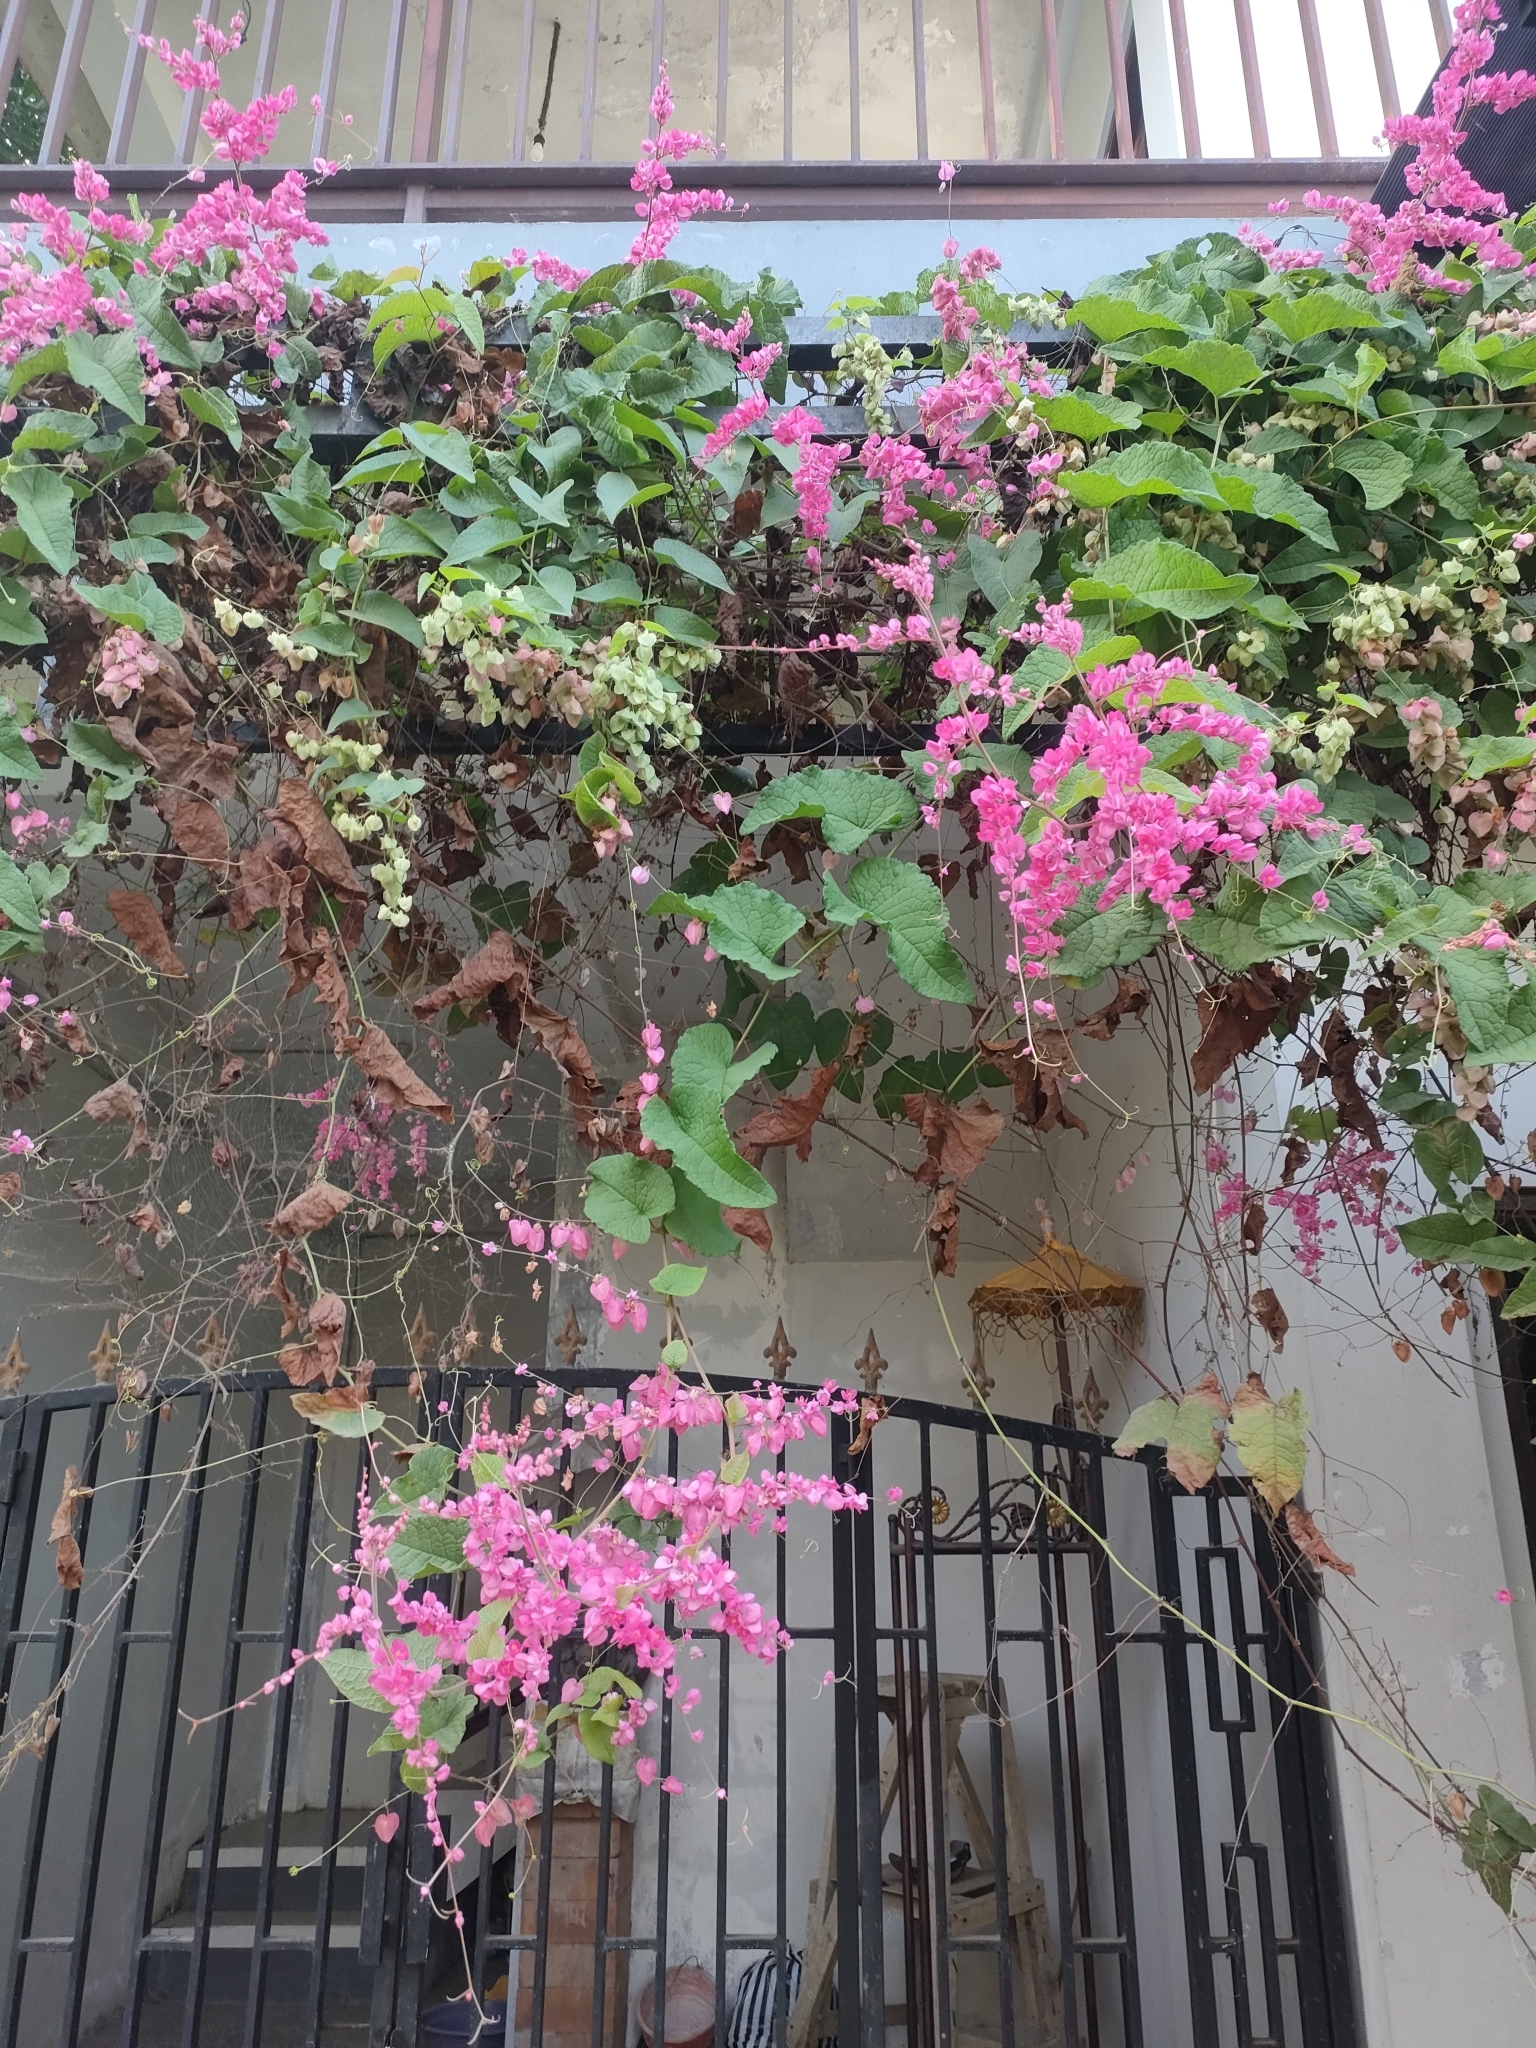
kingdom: Plantae
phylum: Tracheophyta
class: Magnoliopsida
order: Caryophyllales
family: Polygonaceae
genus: Antigonon
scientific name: Antigonon leptopus
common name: Coral vine
